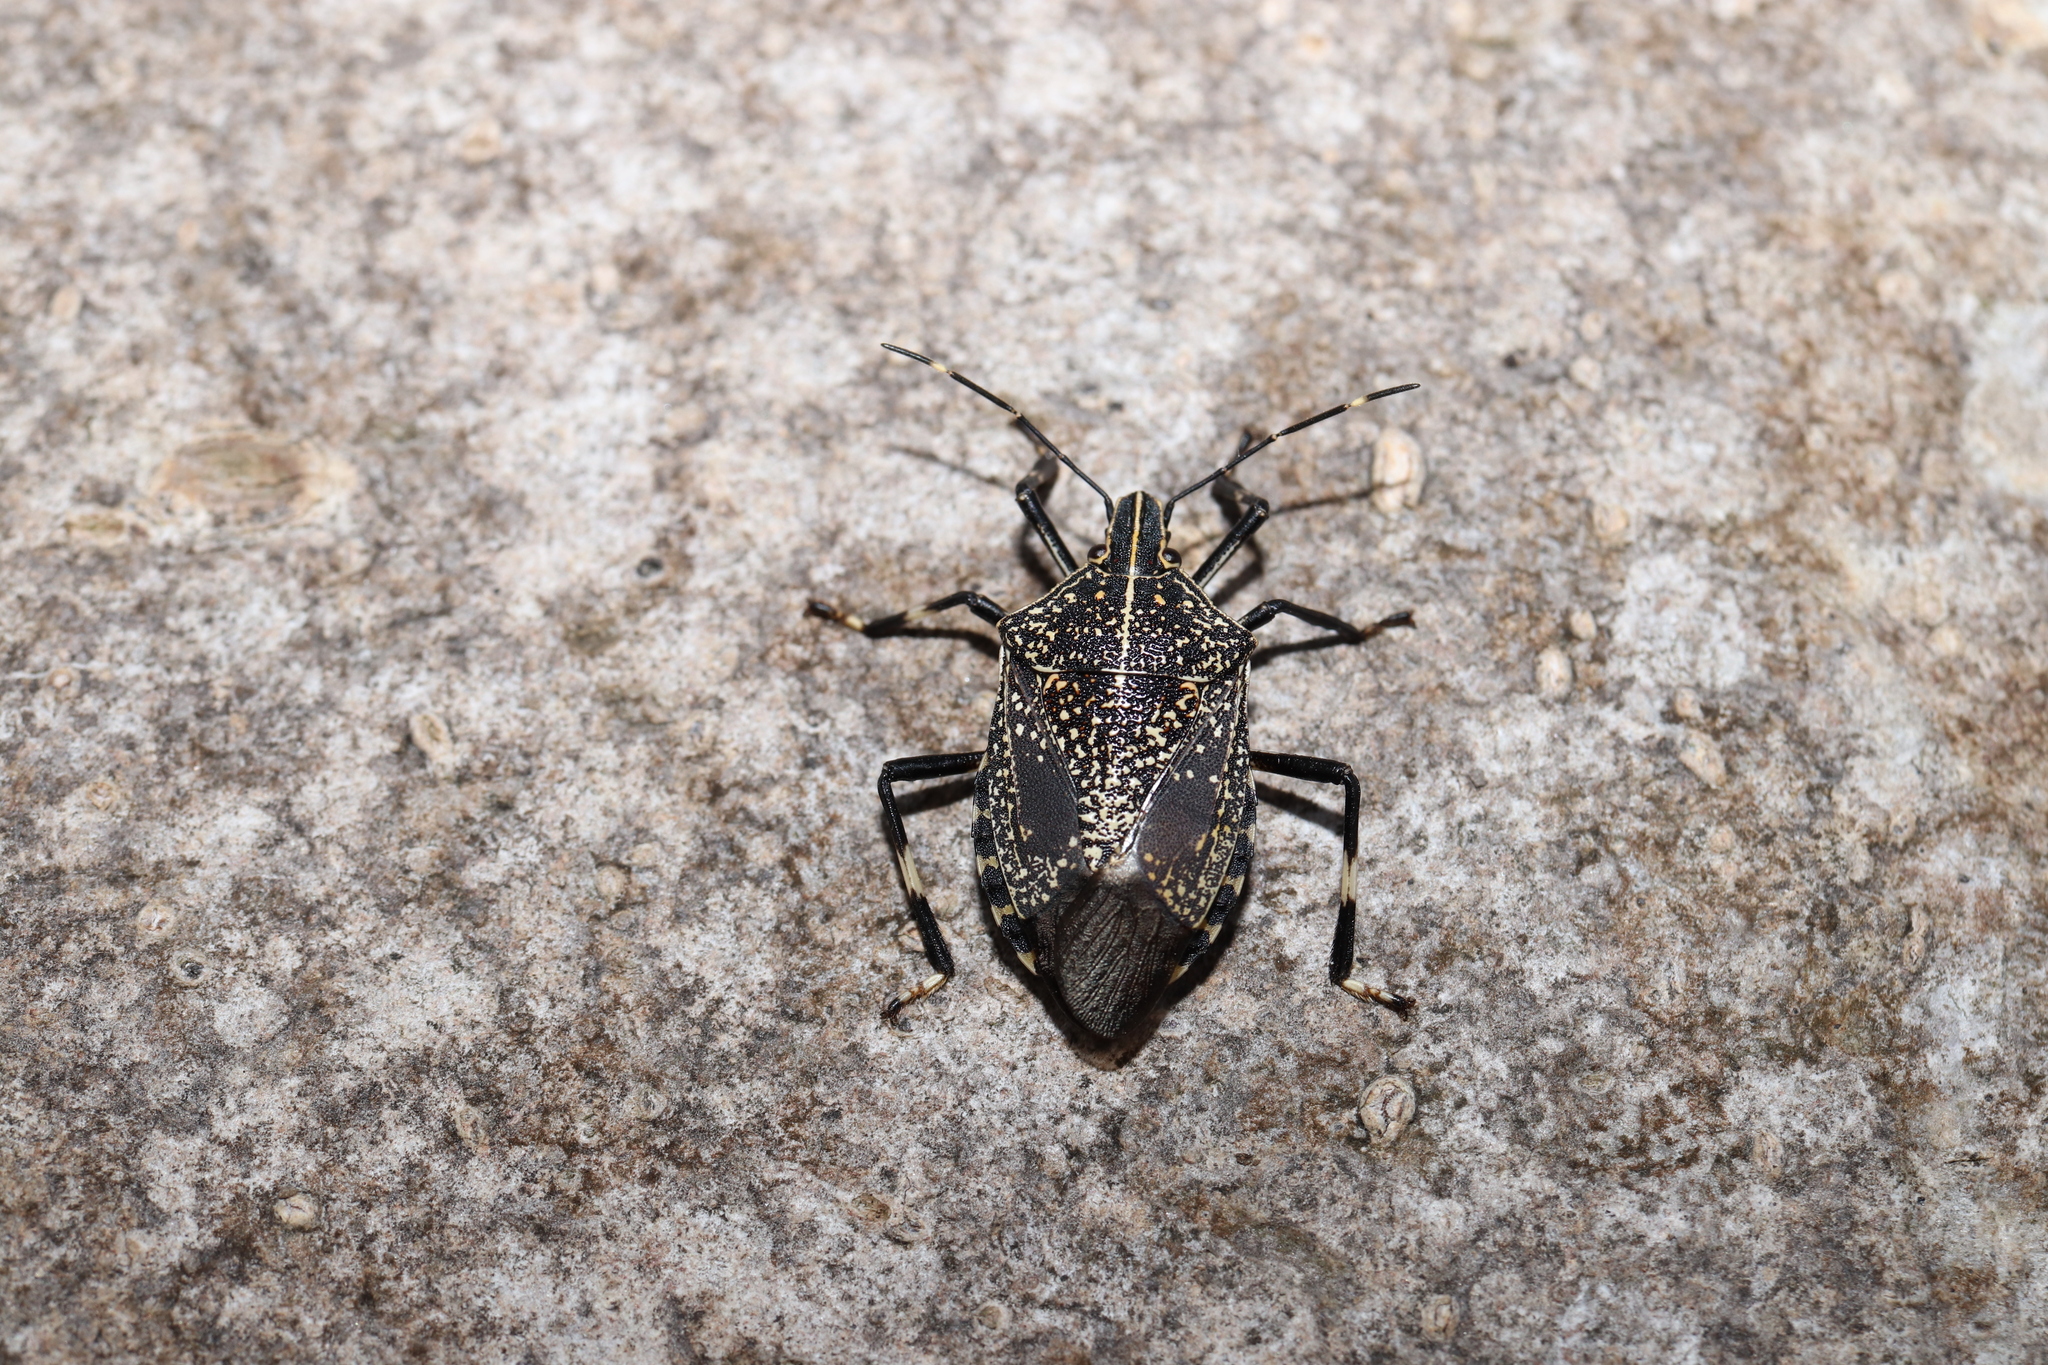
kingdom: Animalia
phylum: Arthropoda
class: Insecta
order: Hemiptera
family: Pentatomidae
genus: Erthesina
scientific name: Erthesina fullo
